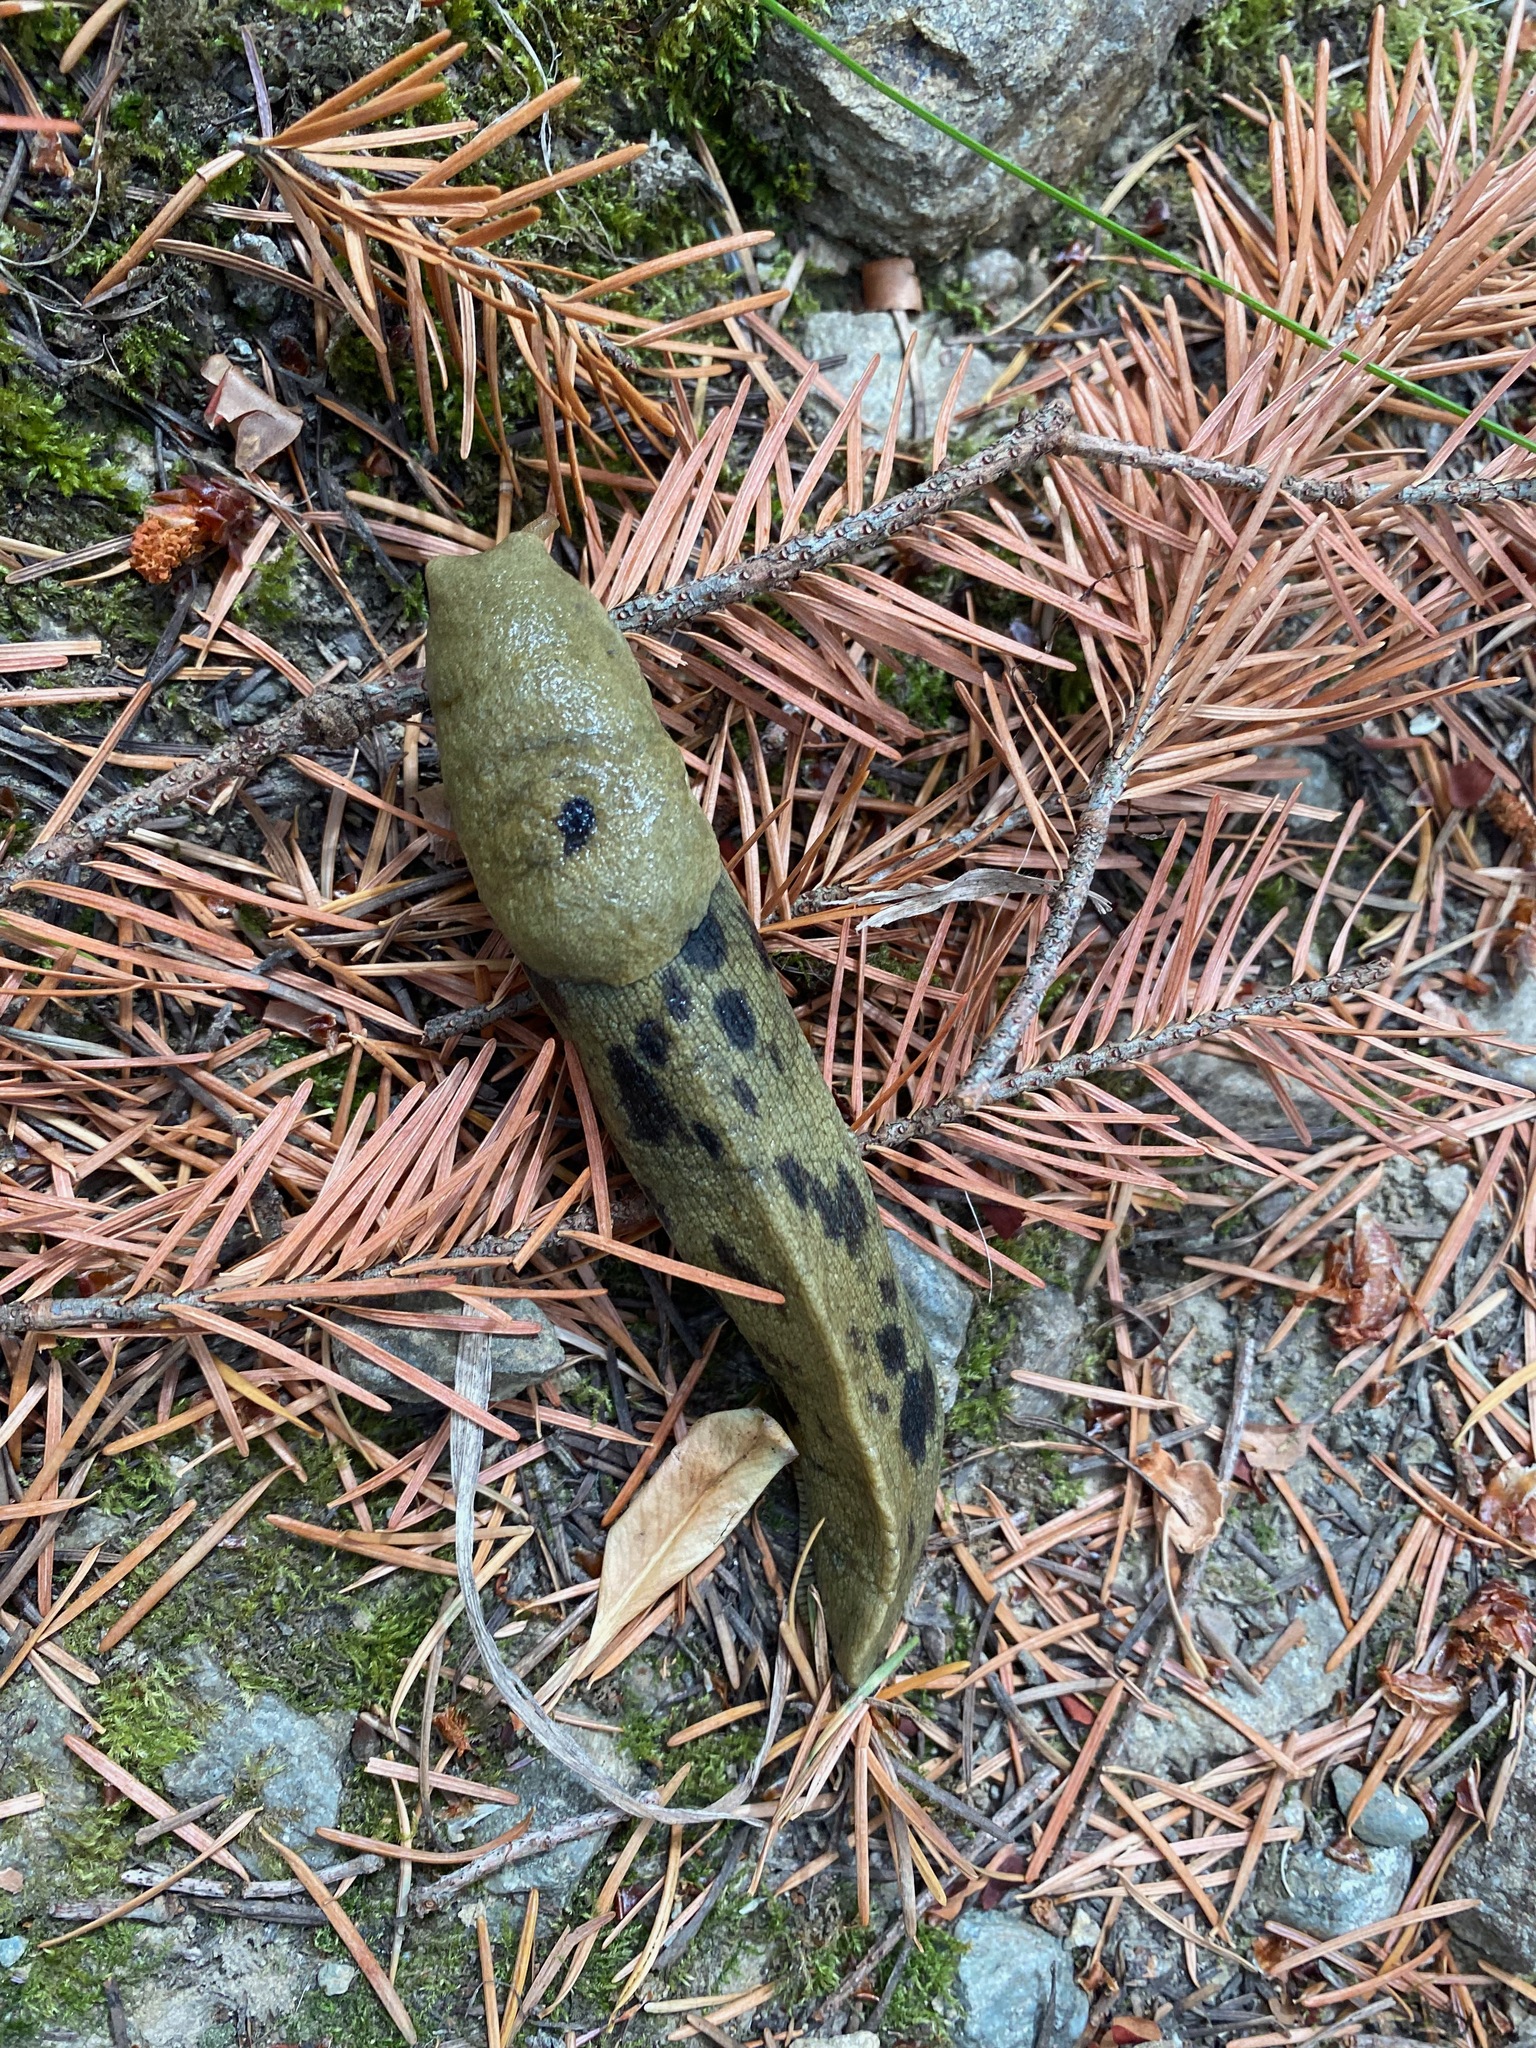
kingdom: Animalia
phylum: Mollusca
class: Gastropoda
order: Stylommatophora
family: Ariolimacidae
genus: Ariolimax
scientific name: Ariolimax columbianus
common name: Pacific banana slug
